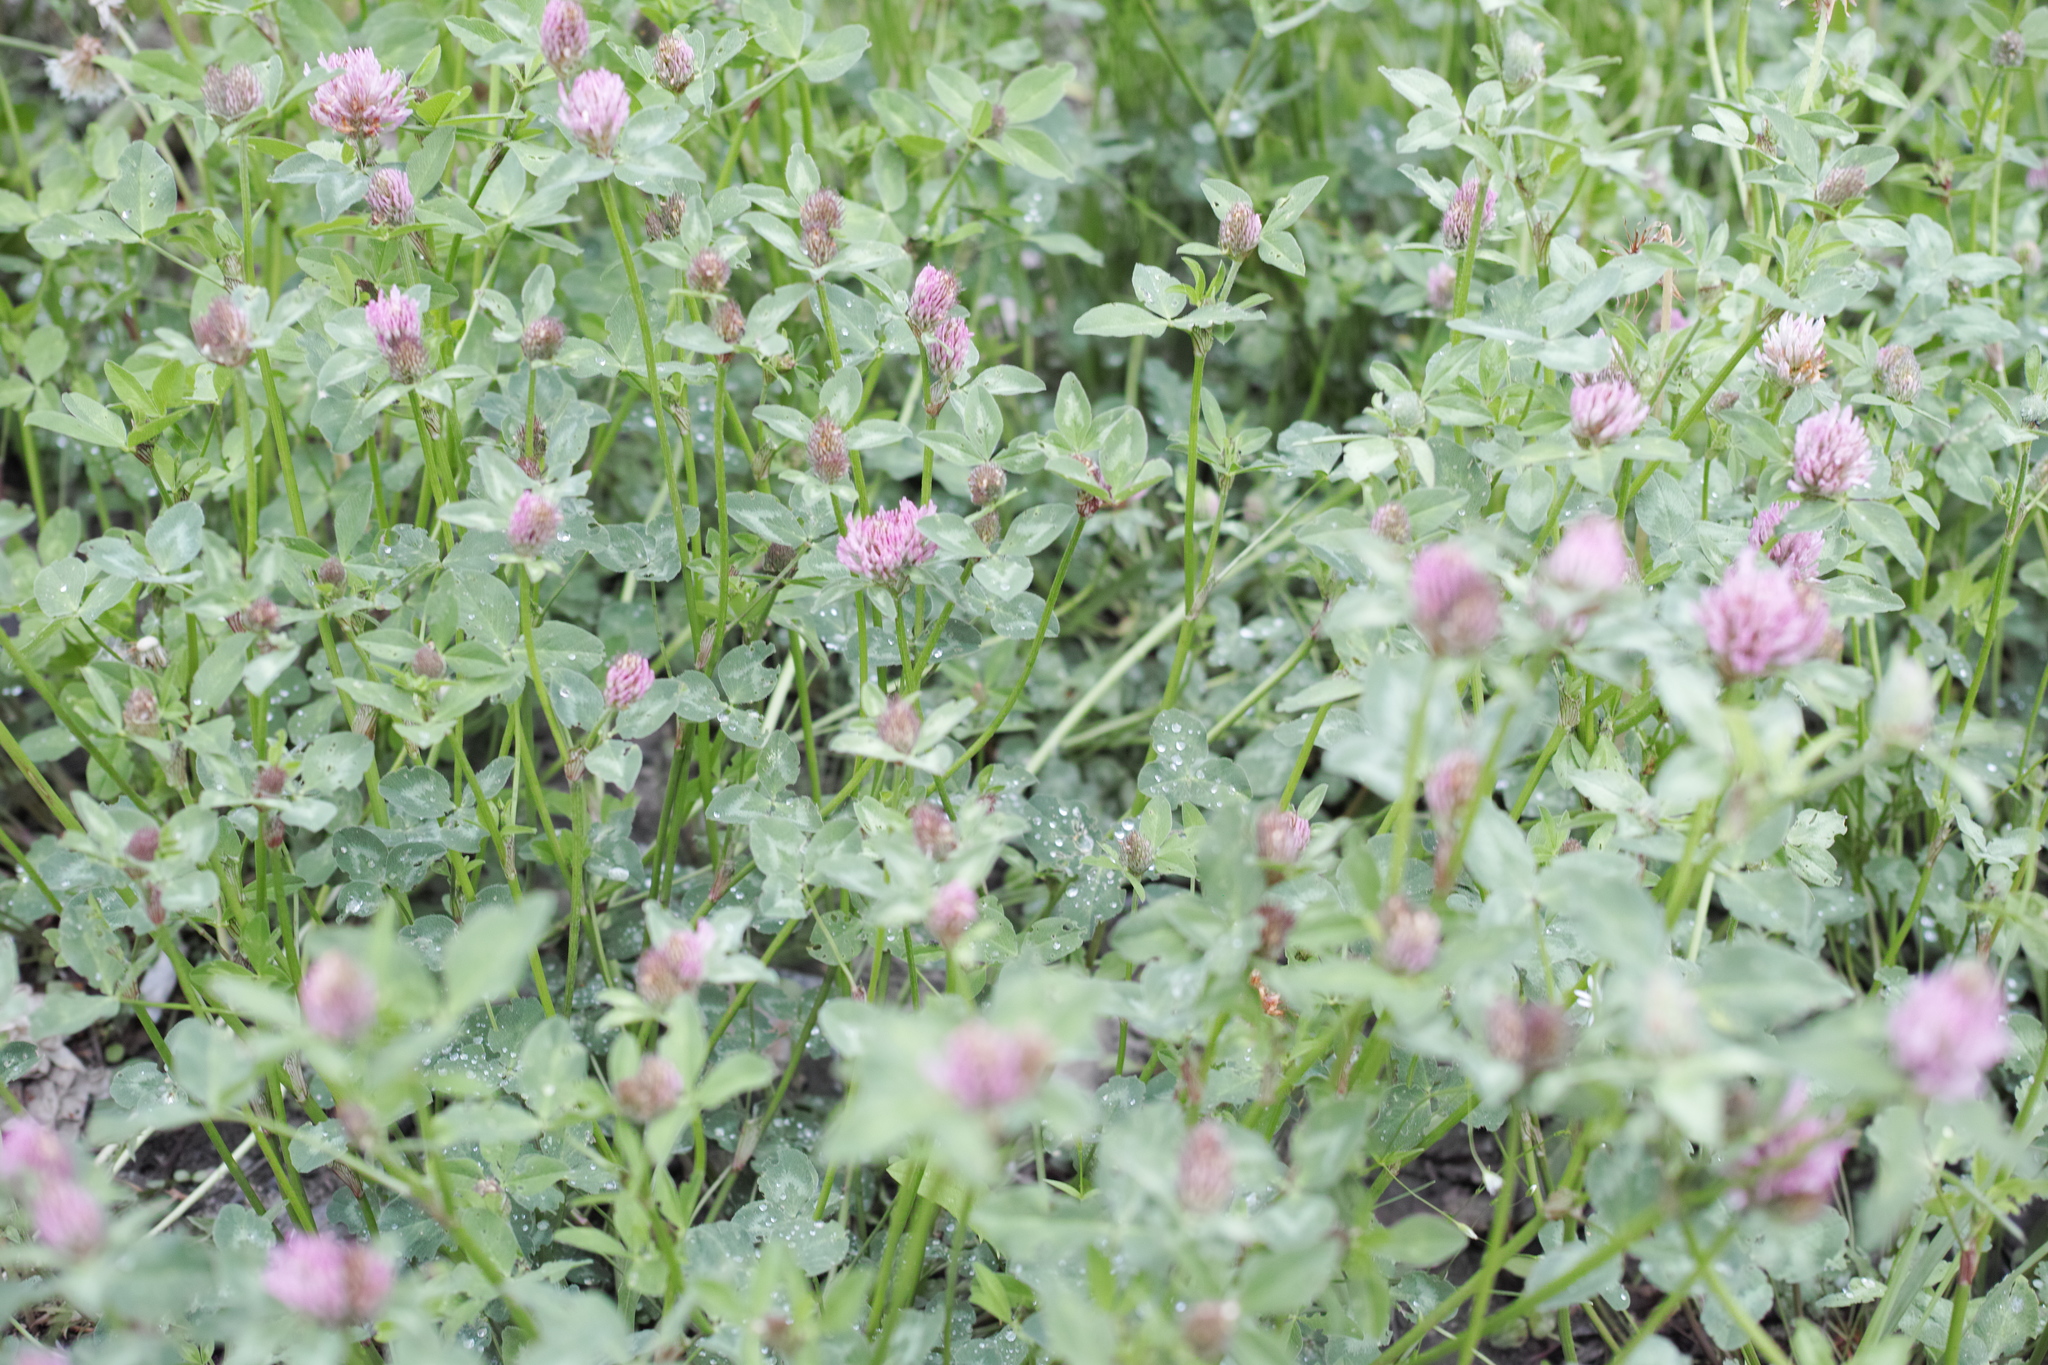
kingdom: Plantae
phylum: Tracheophyta
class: Magnoliopsida
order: Fabales
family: Fabaceae
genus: Trifolium
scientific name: Trifolium pratense
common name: Red clover
